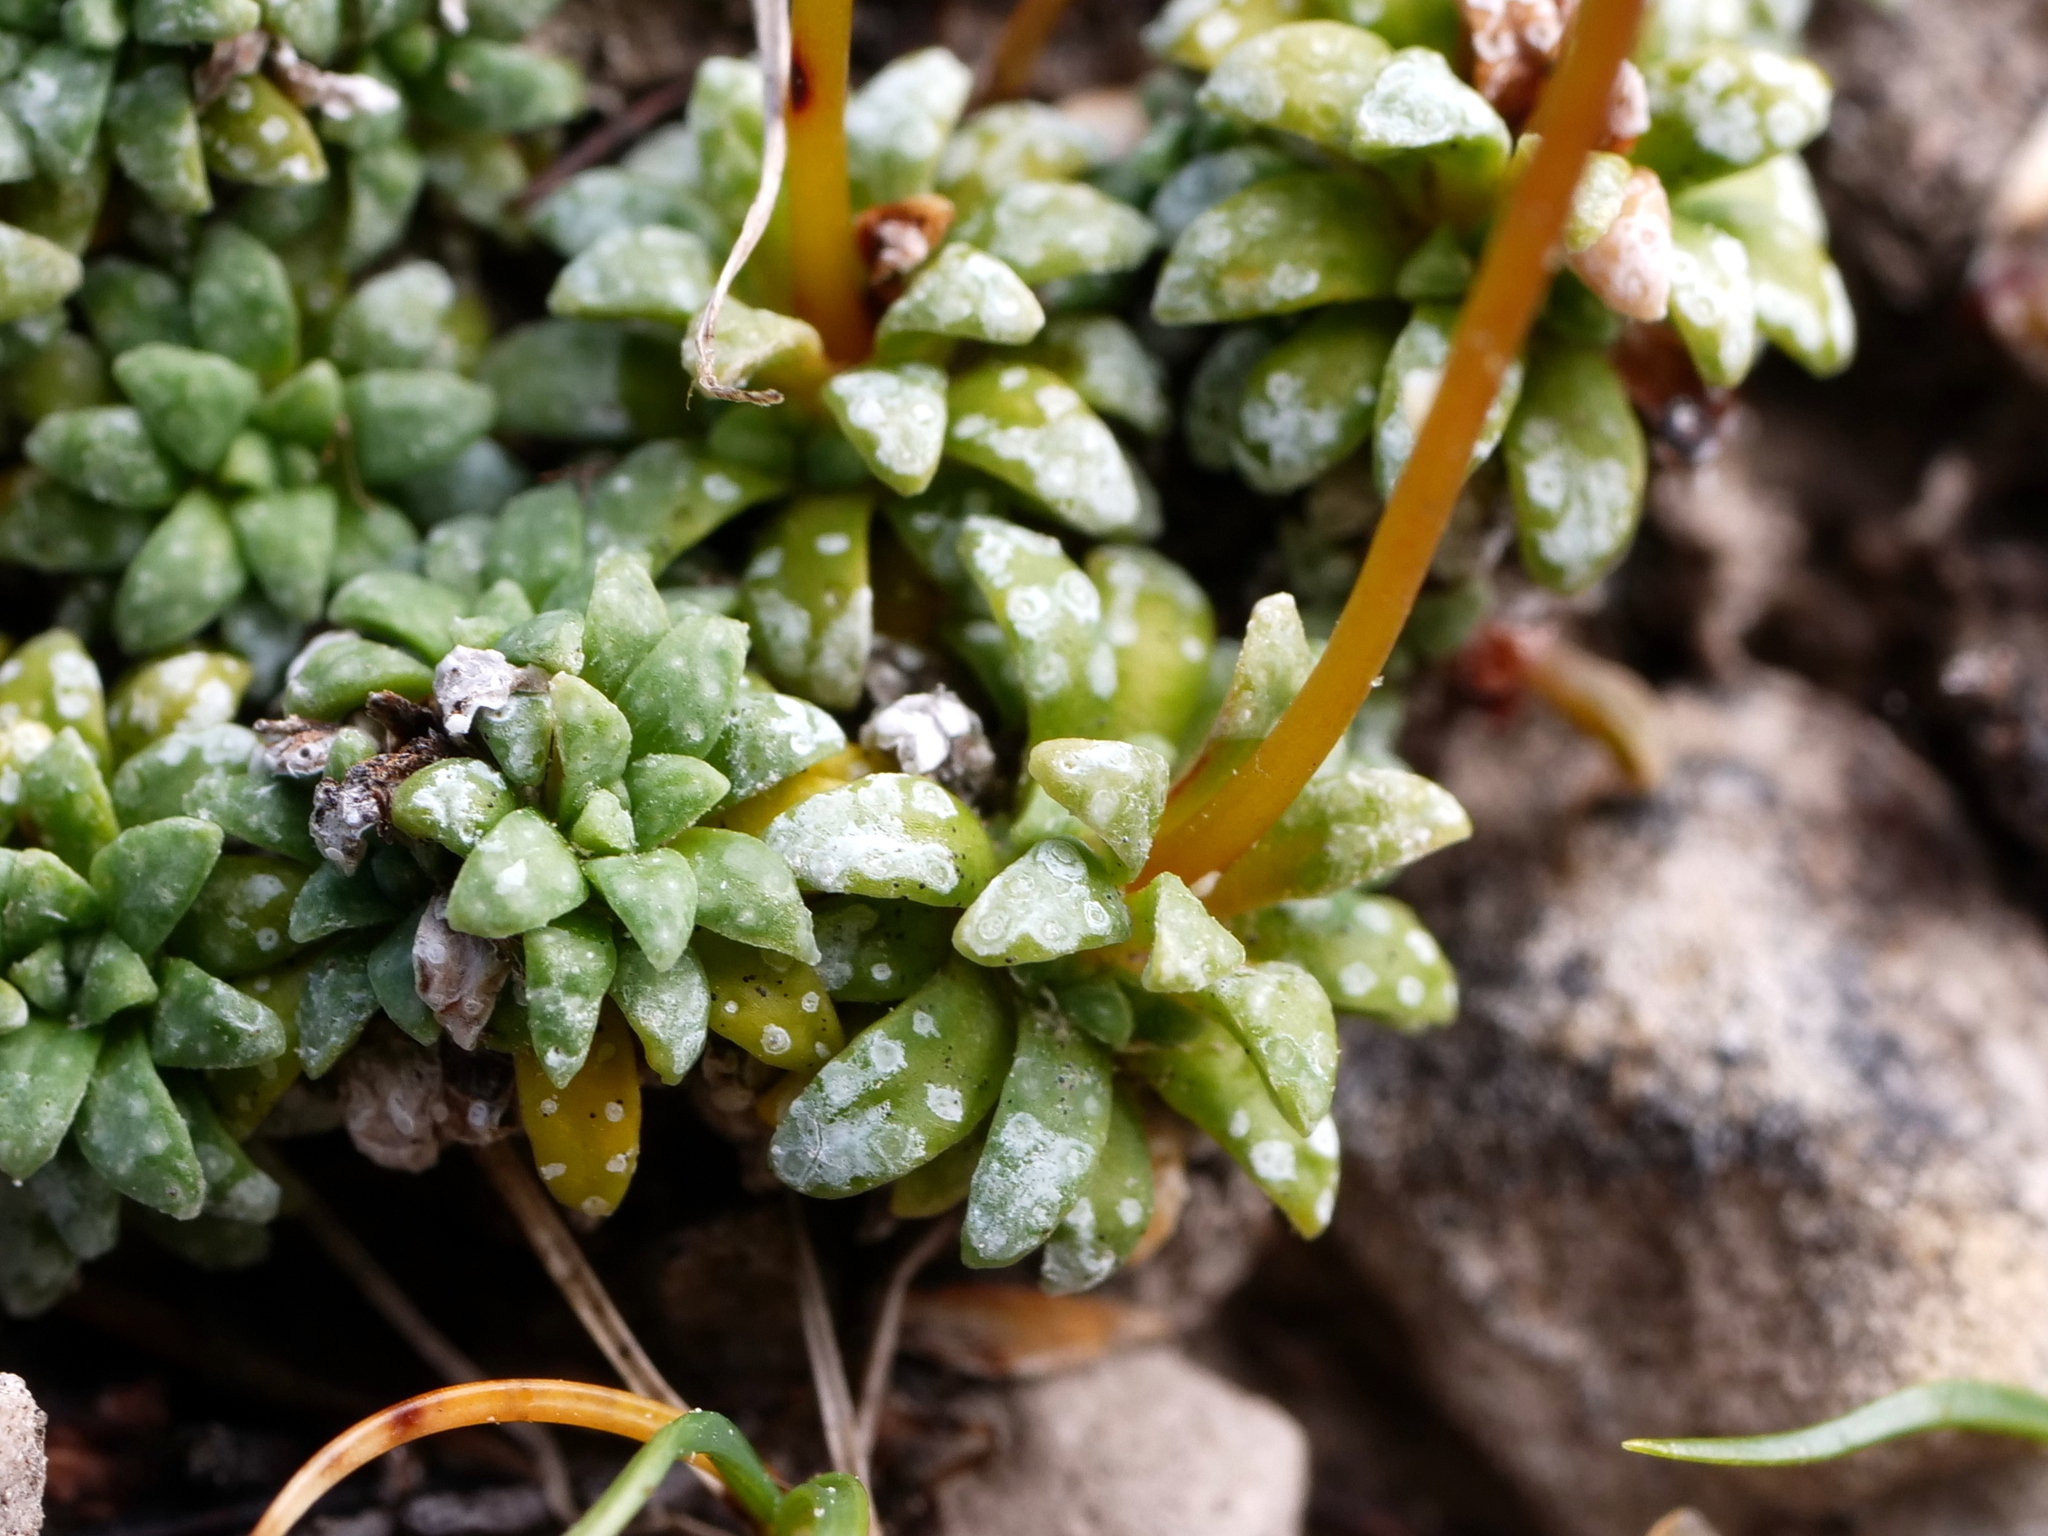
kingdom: Plantae
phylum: Tracheophyta
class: Magnoliopsida
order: Saxifragales
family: Saxifragaceae
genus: Saxifraga
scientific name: Saxifraga caesia
